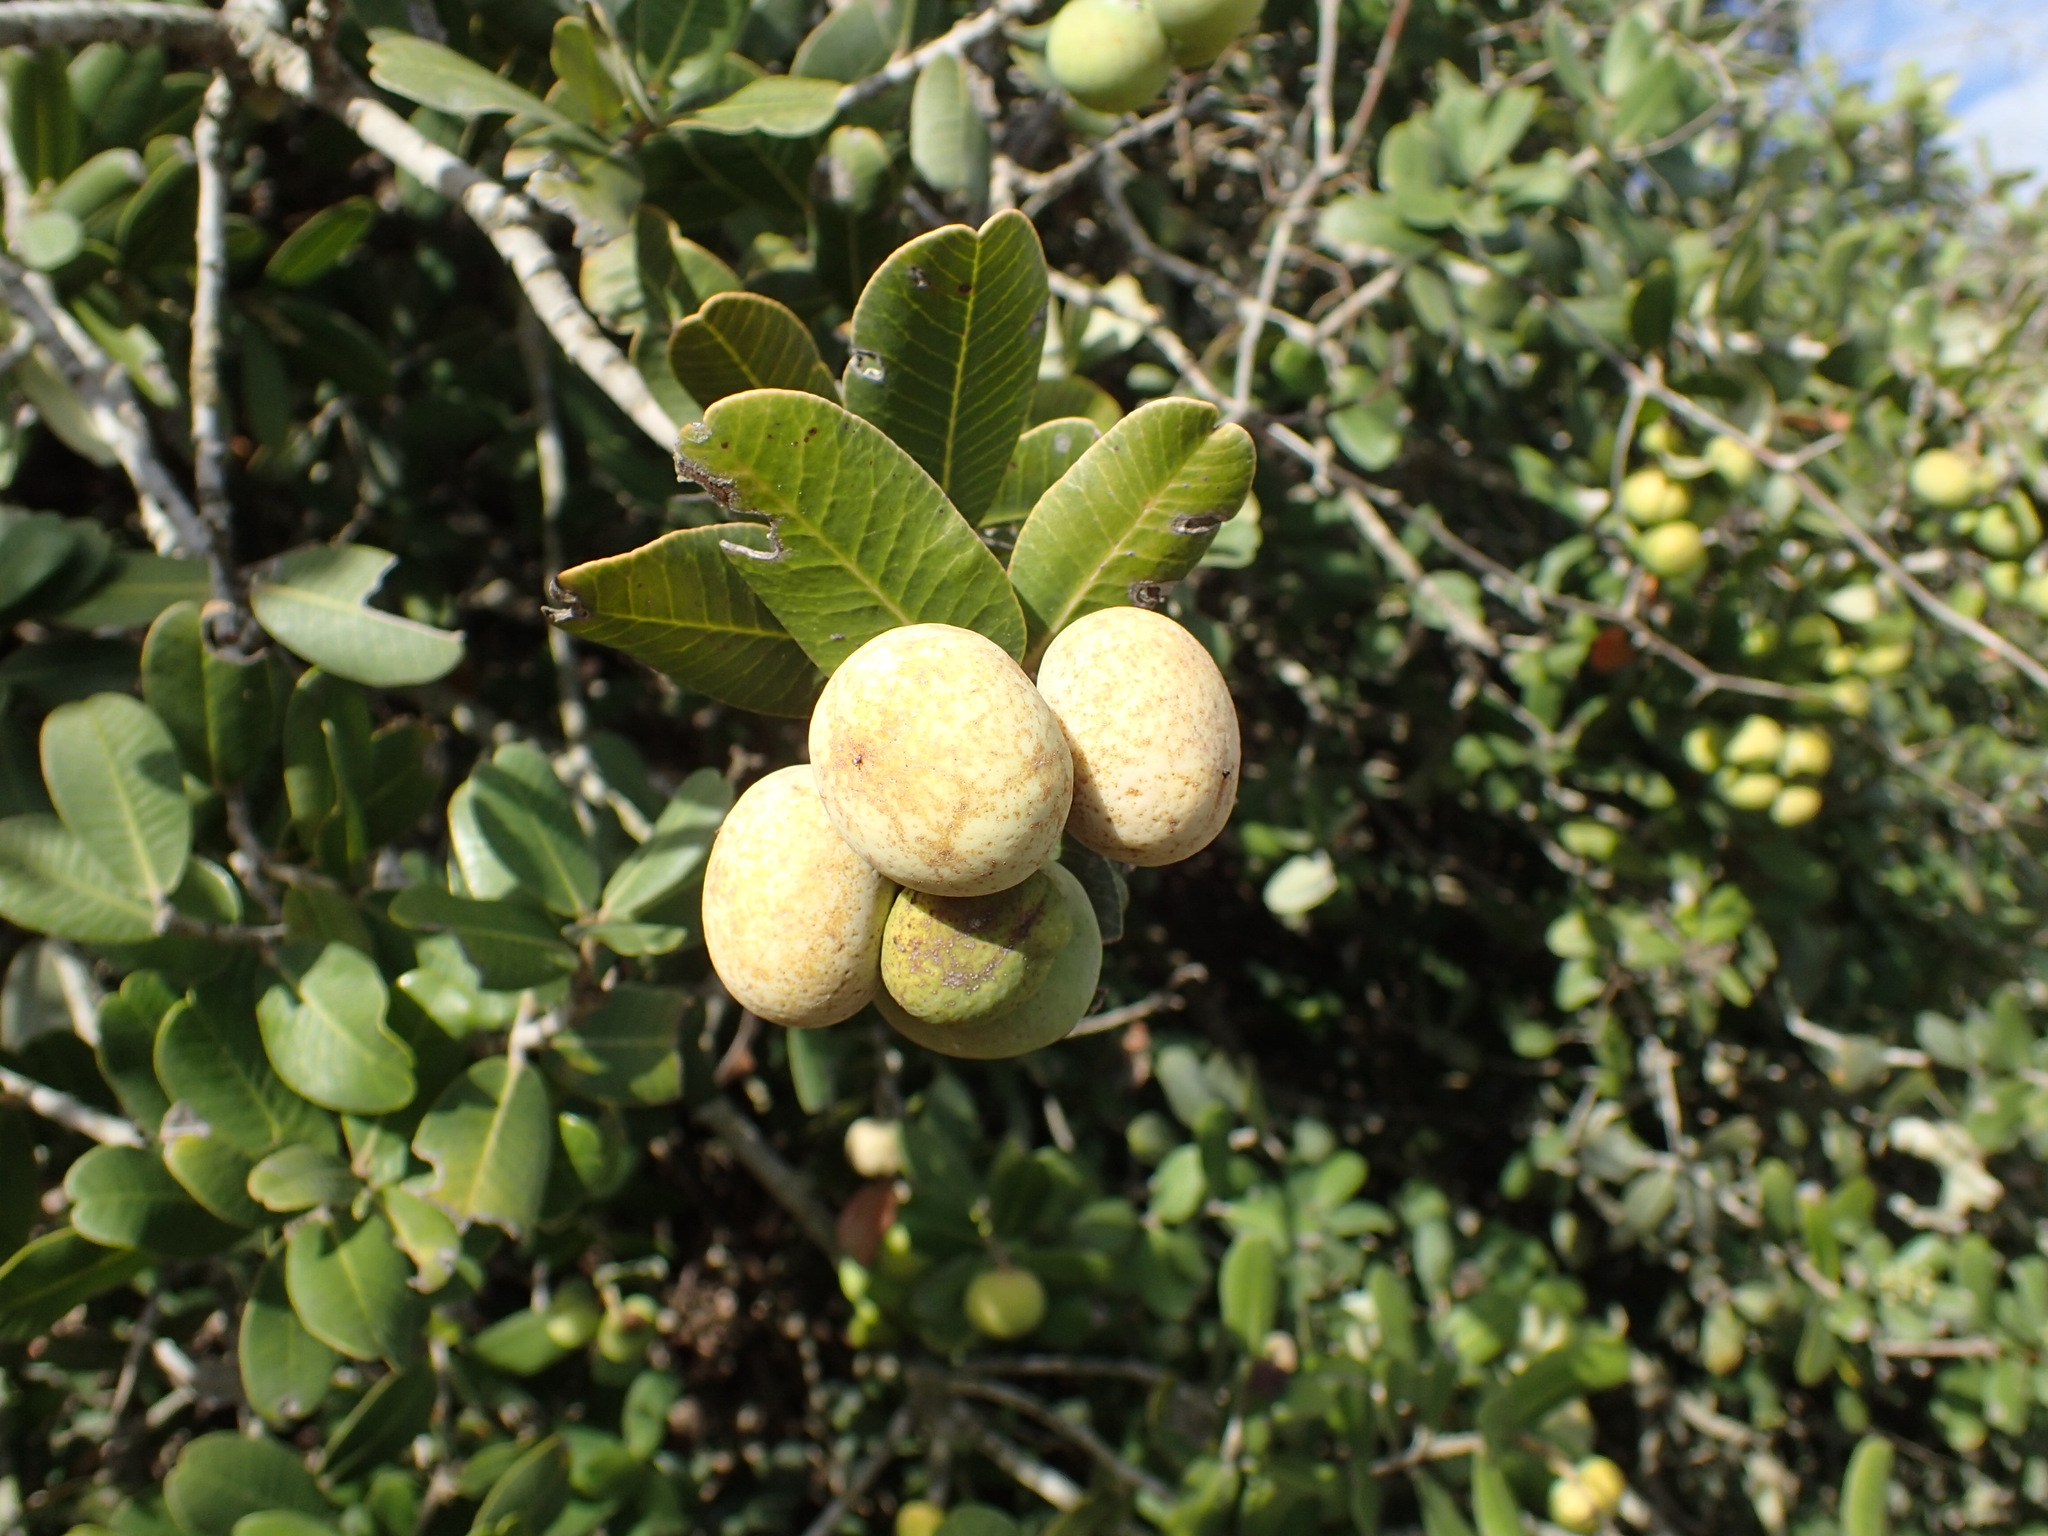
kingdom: Plantae
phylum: Tracheophyta
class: Magnoliopsida
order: Sapindales
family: Anacardiaceae
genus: Heeria
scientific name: Heeria argentea
